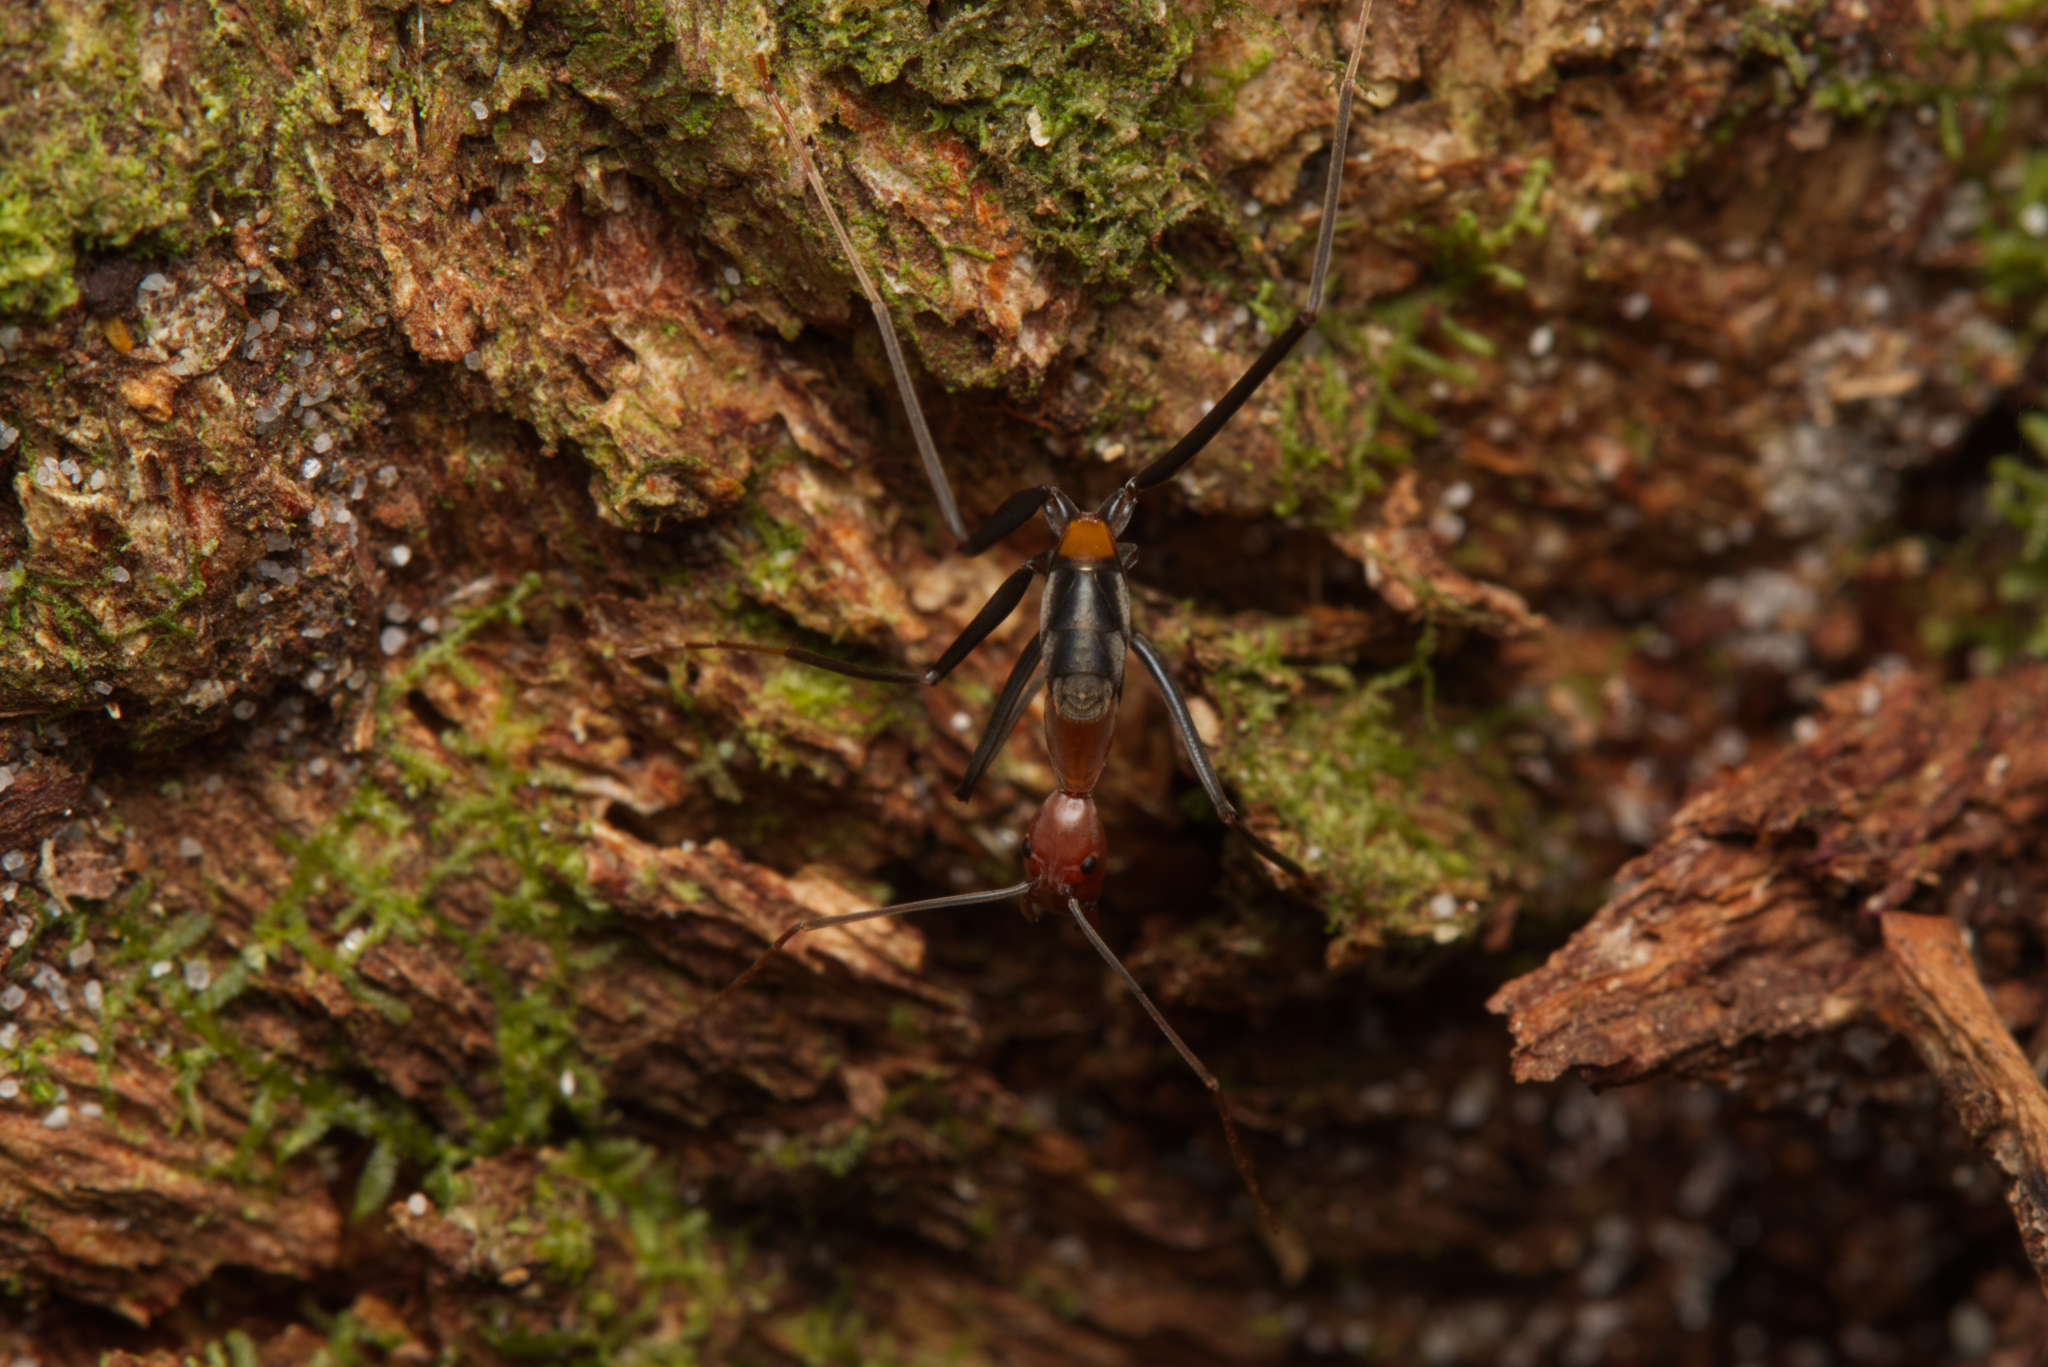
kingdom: Animalia
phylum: Arthropoda
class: Insecta
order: Hymenoptera
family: Formicidae
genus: Leptomyrmex
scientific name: Leptomyrmex rufithorax
